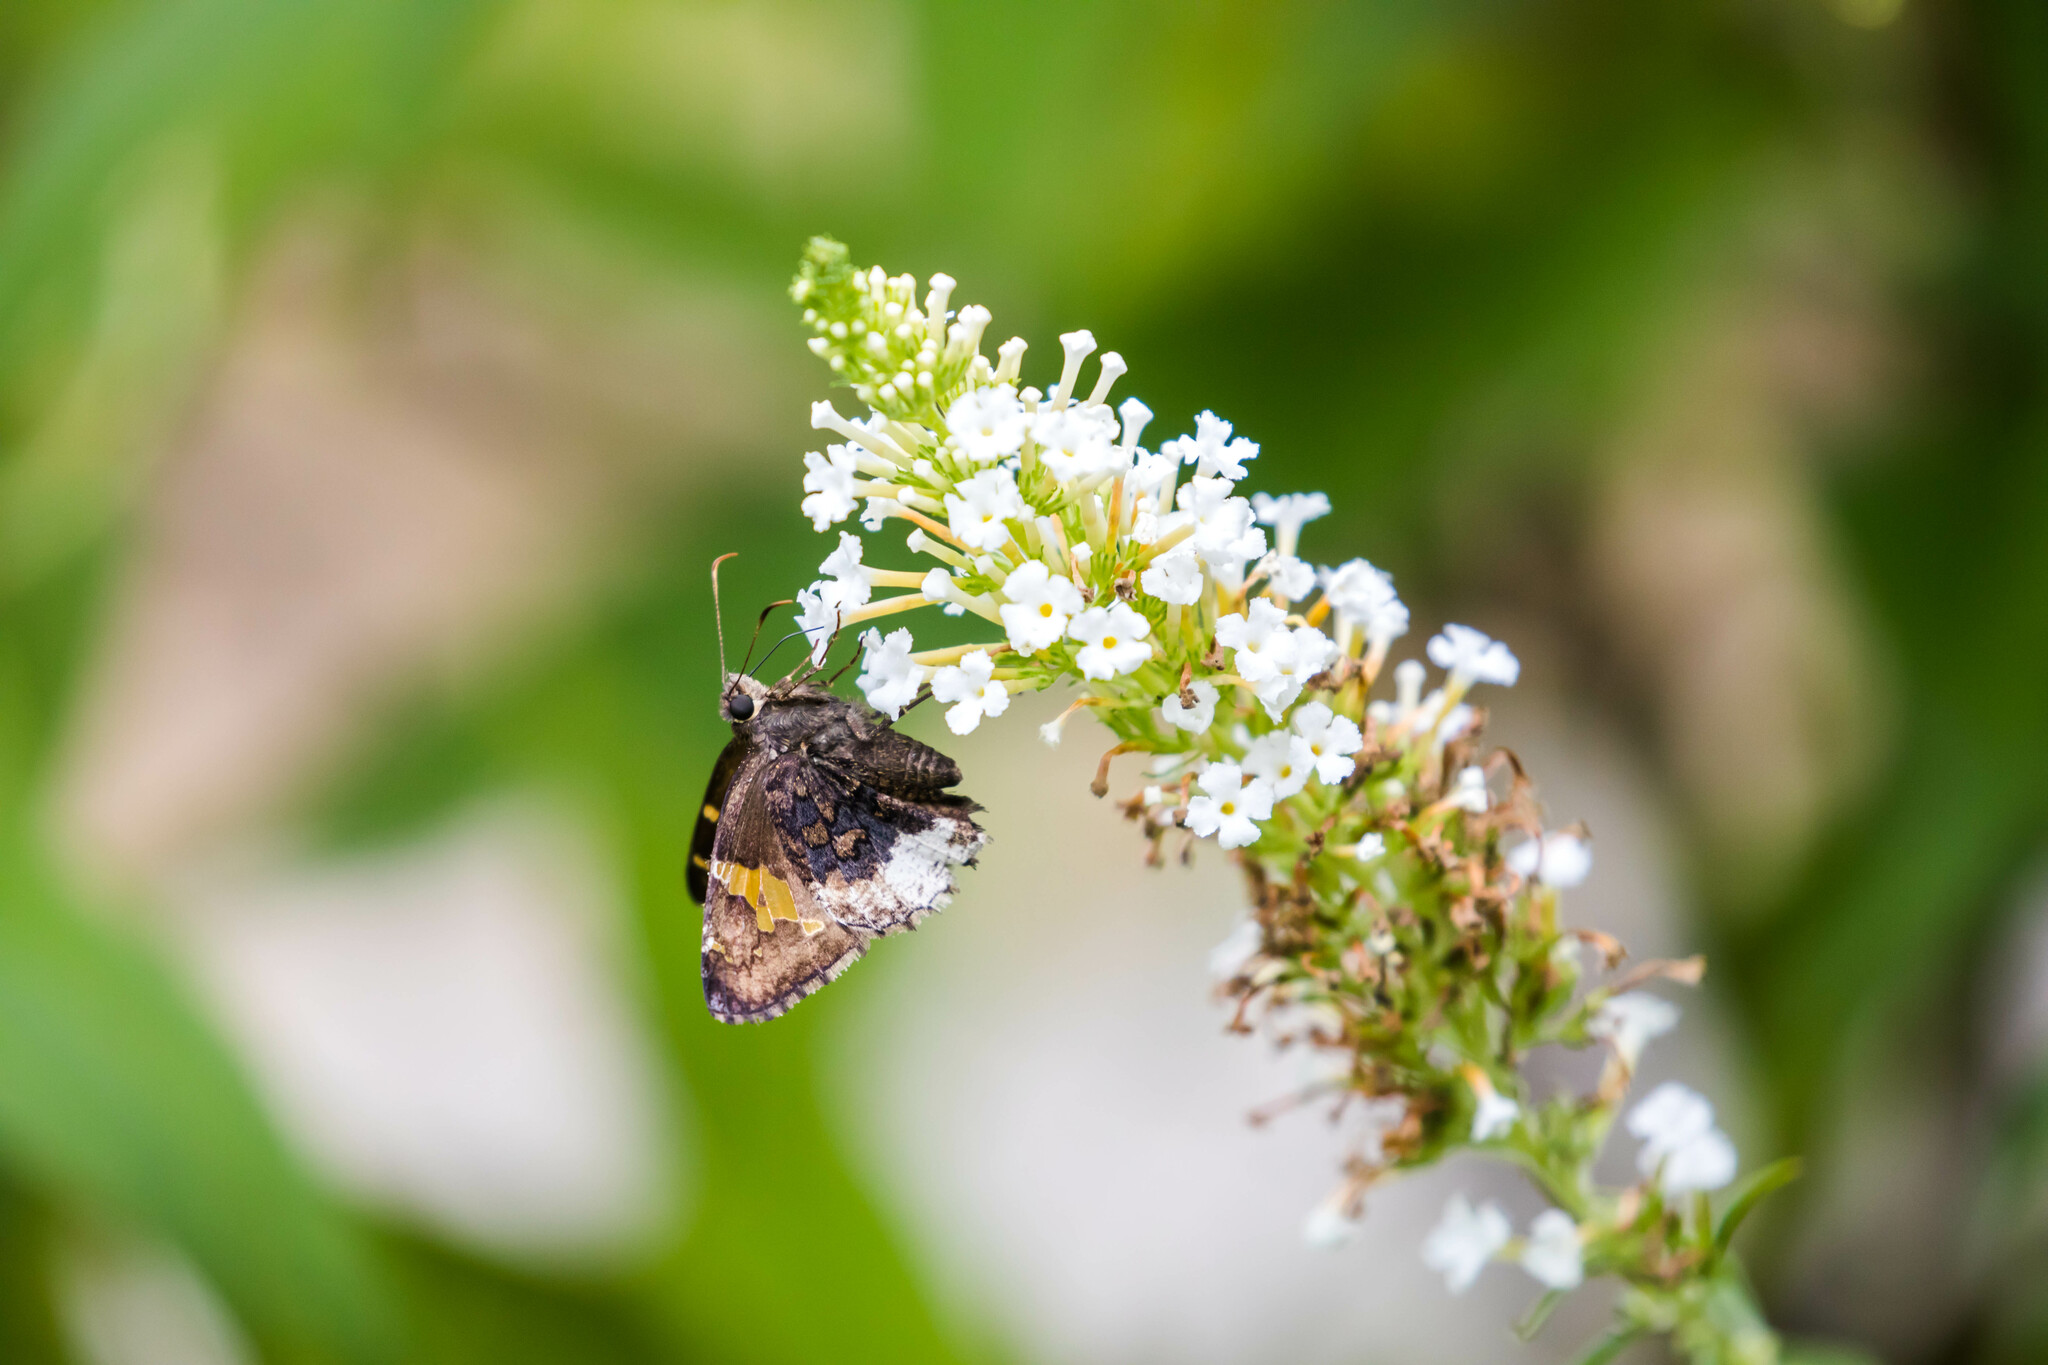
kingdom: Animalia
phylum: Arthropoda
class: Insecta
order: Lepidoptera
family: Hesperiidae
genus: Thorybes
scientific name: Thorybes lyciades
